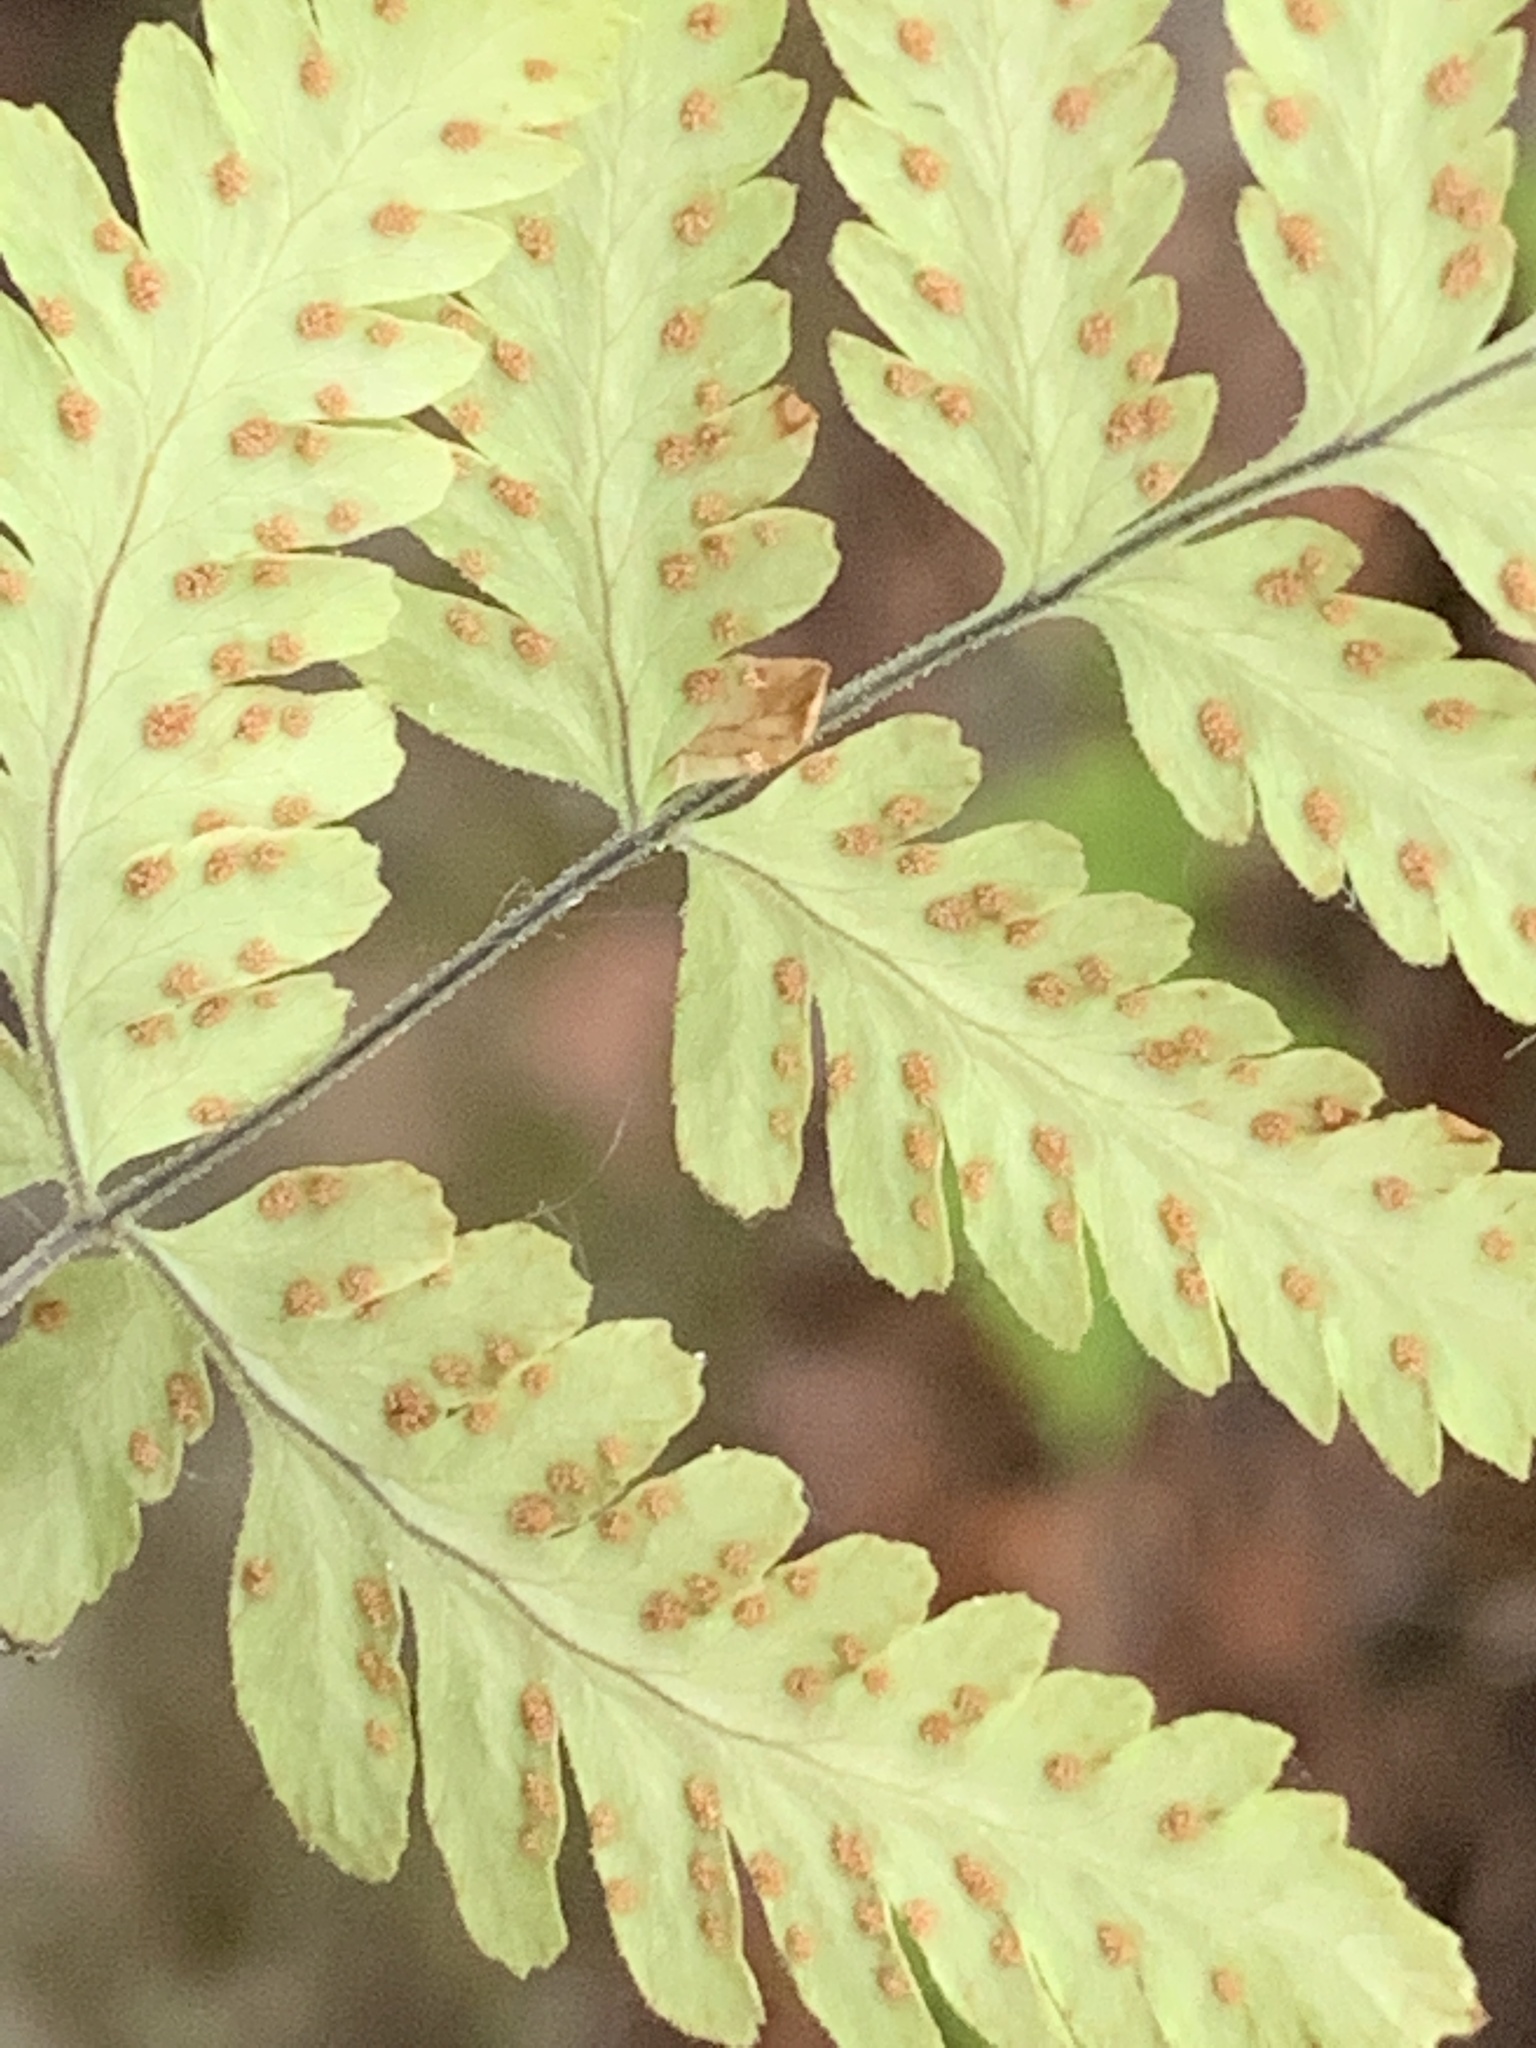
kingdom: Plantae
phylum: Tracheophyta
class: Polypodiopsida
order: Polypodiales
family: Cystopteridaceae
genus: Gymnocarpium
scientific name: Gymnocarpium continentale
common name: Asian oak fern
